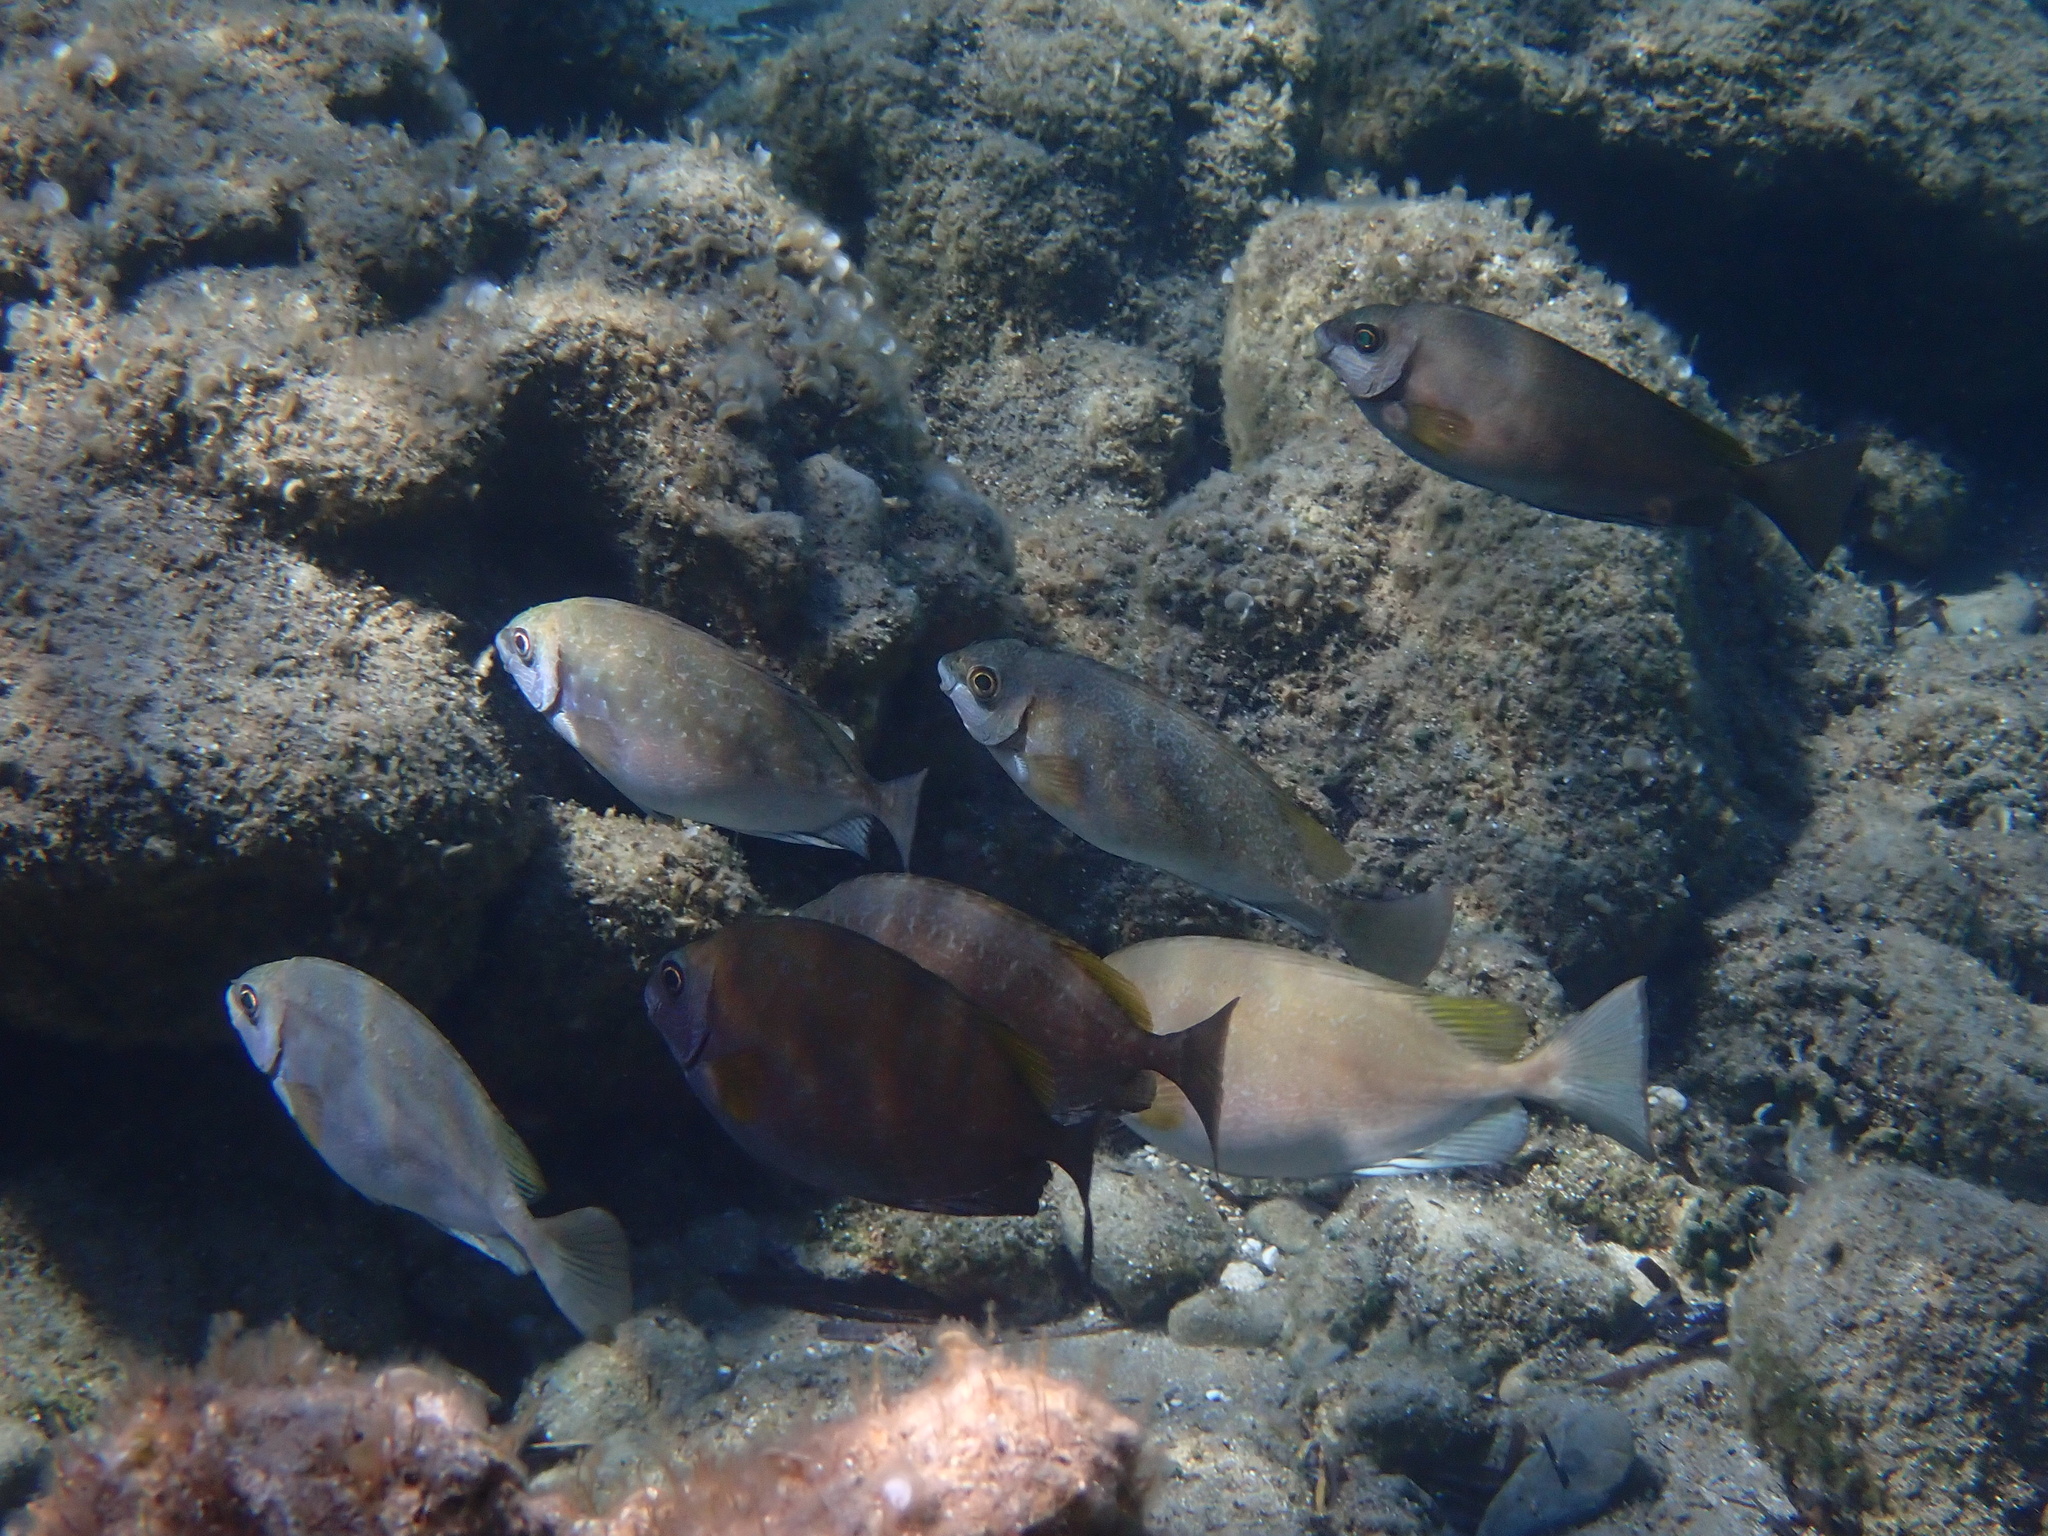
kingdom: Animalia
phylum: Chordata
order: Perciformes
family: Siganidae
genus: Siganus
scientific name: Siganus luridus
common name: Dusky spinefoot
